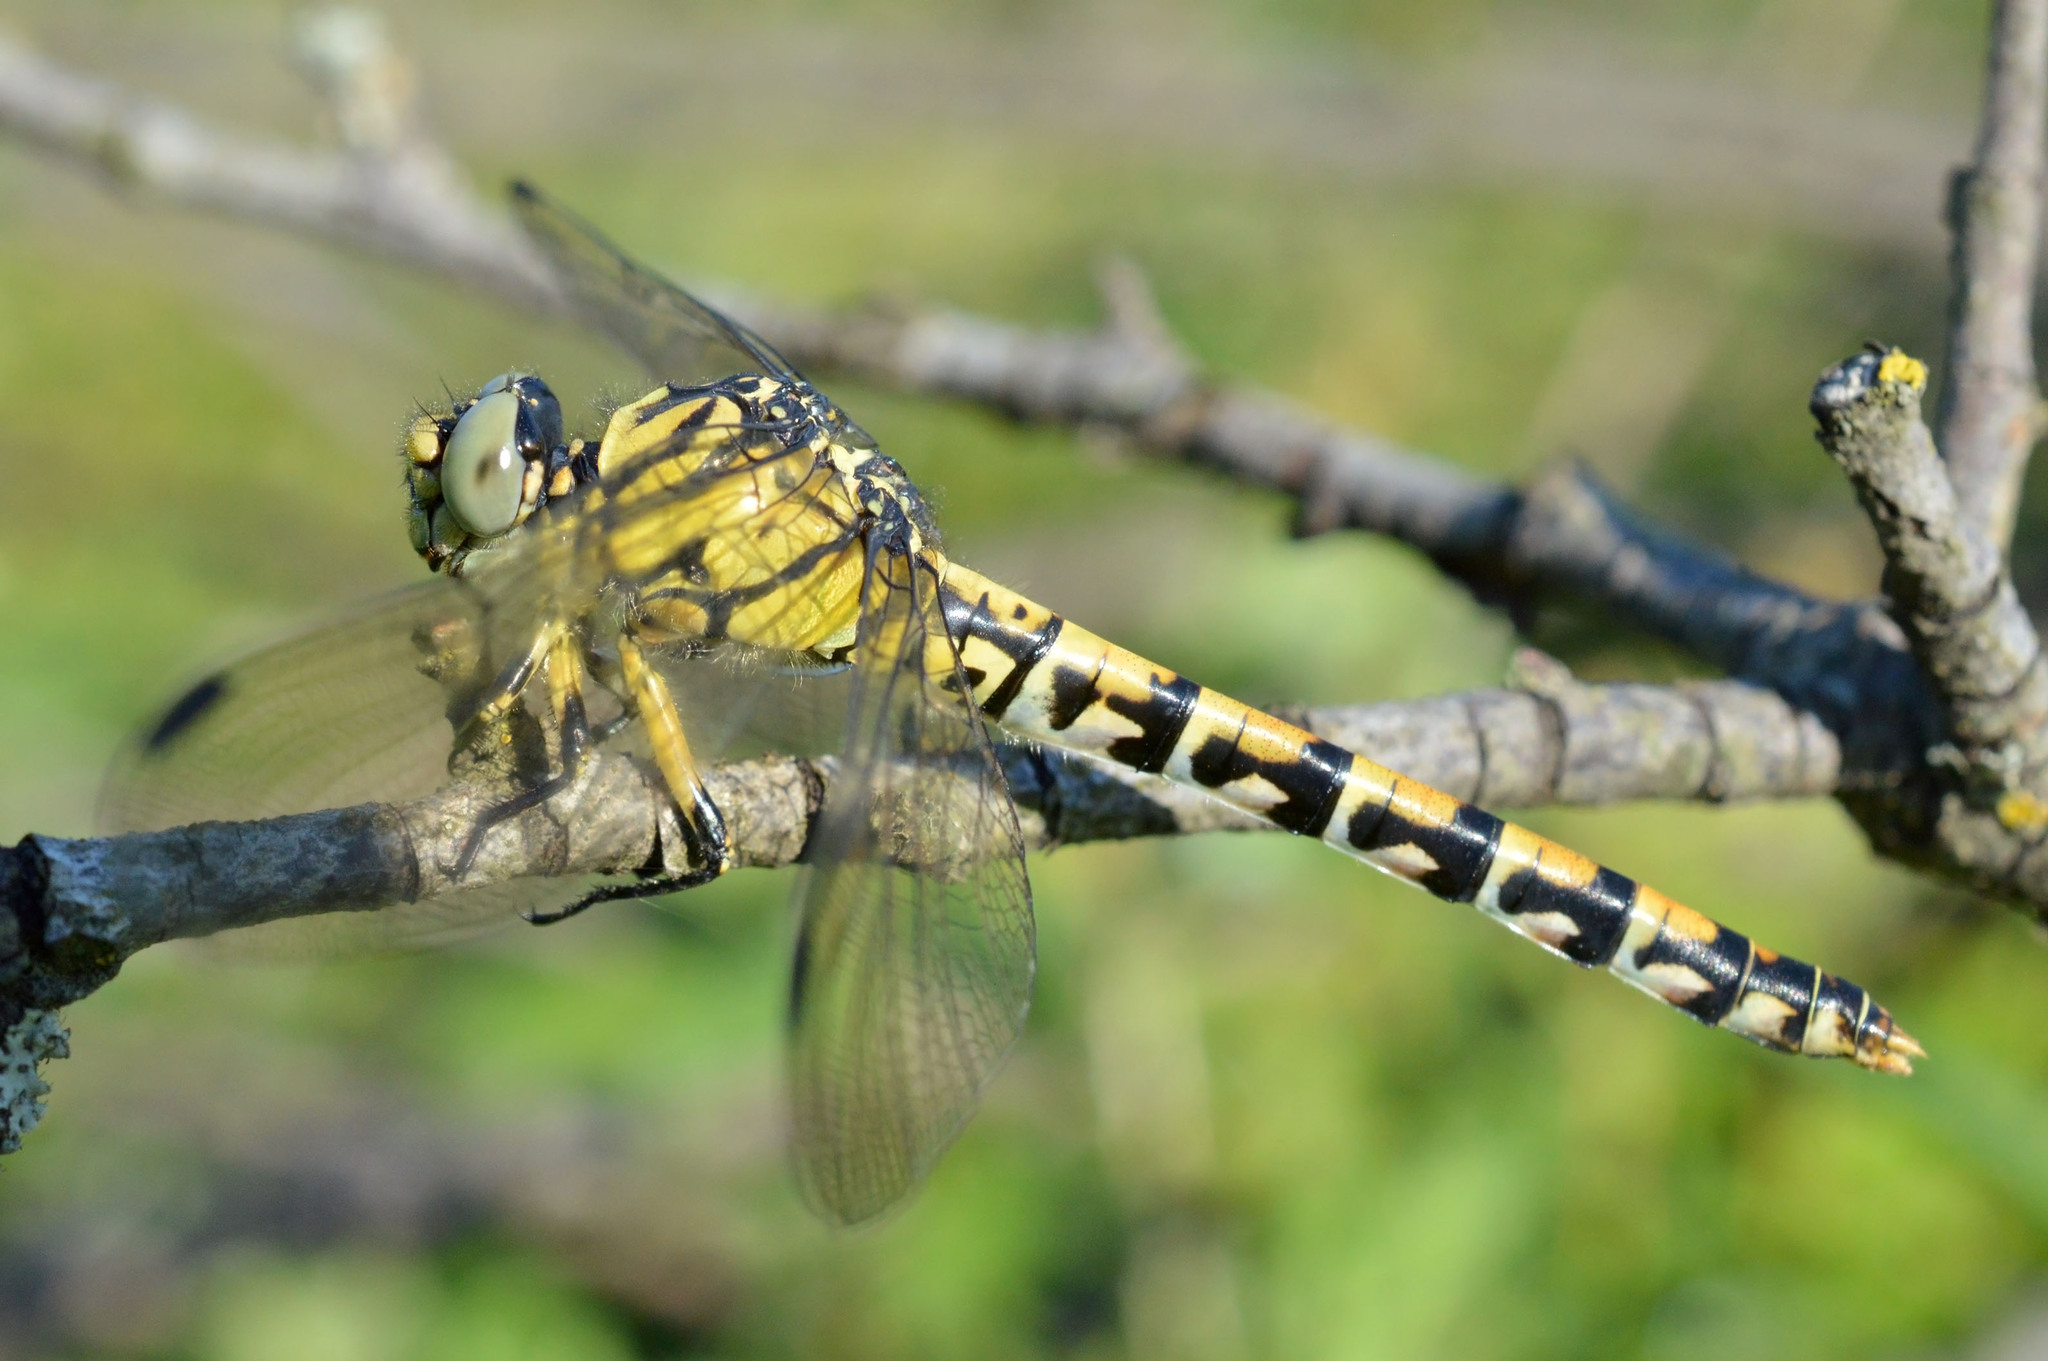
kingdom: Animalia
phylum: Arthropoda
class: Insecta
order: Odonata
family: Gomphidae
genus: Onychogomphus
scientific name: Onychogomphus forcipatus
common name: Small pincertail
